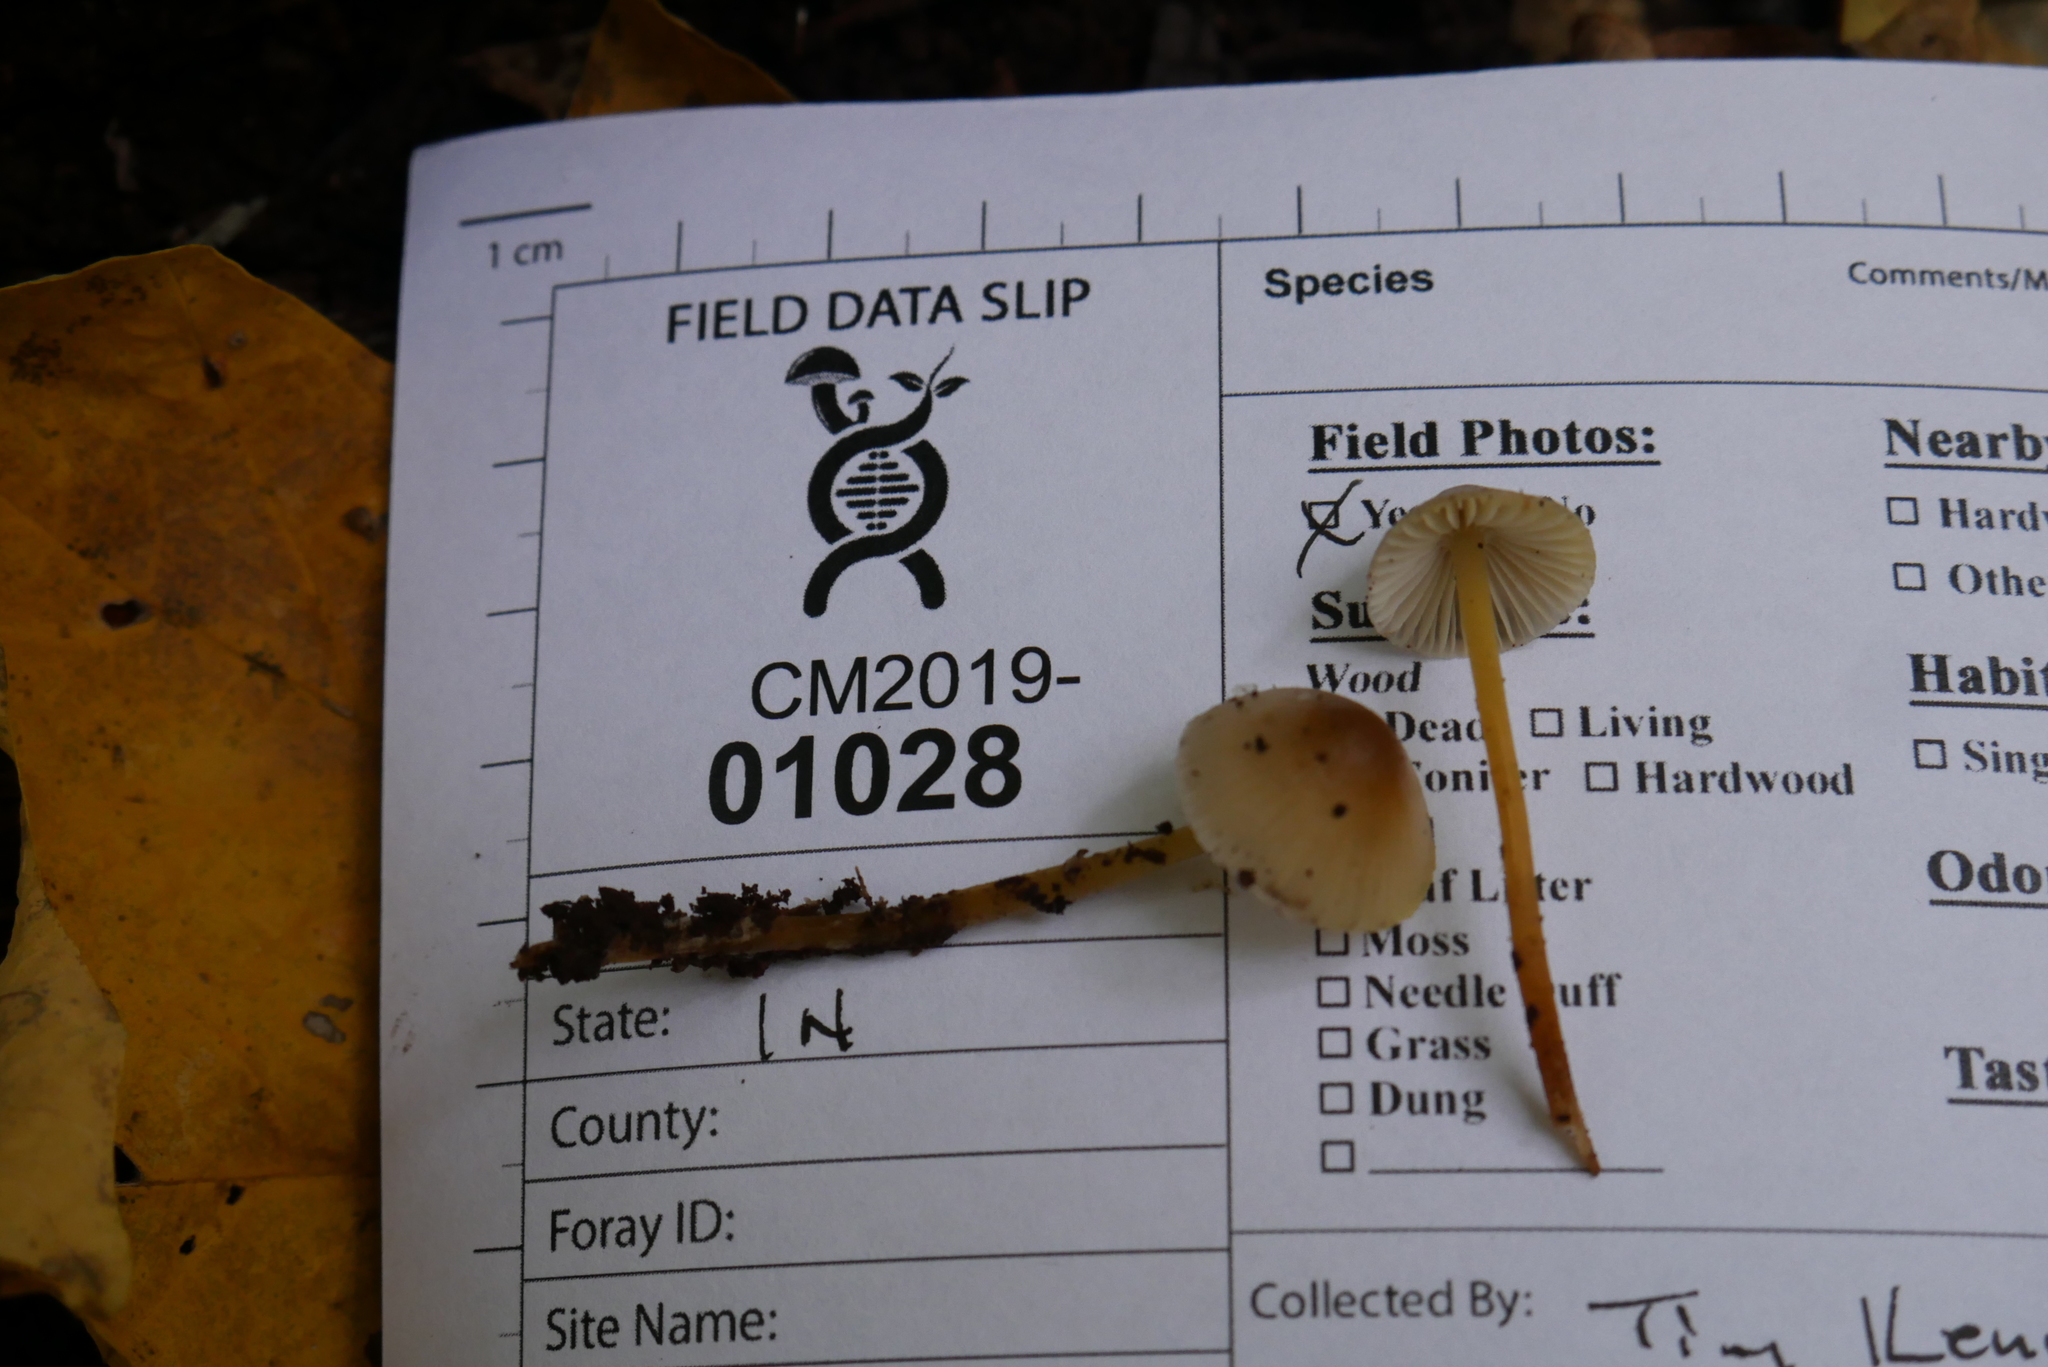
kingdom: Fungi
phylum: Basidiomycota
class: Agaricomycetes
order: Agaricales
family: Mycenaceae
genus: Mycena
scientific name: Mycena inclinata
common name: Clustered bonnet
